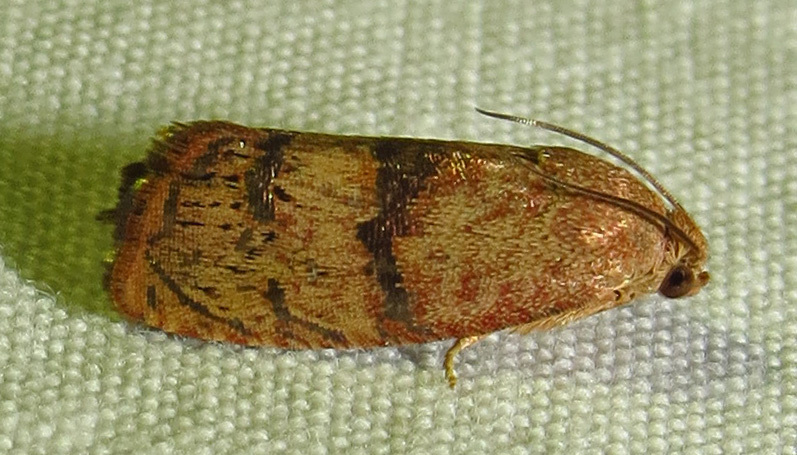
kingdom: Animalia
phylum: Arthropoda
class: Insecta
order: Lepidoptera
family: Tortricidae
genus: Cydia
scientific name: Cydia latiferreana
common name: Filbertworm moth
